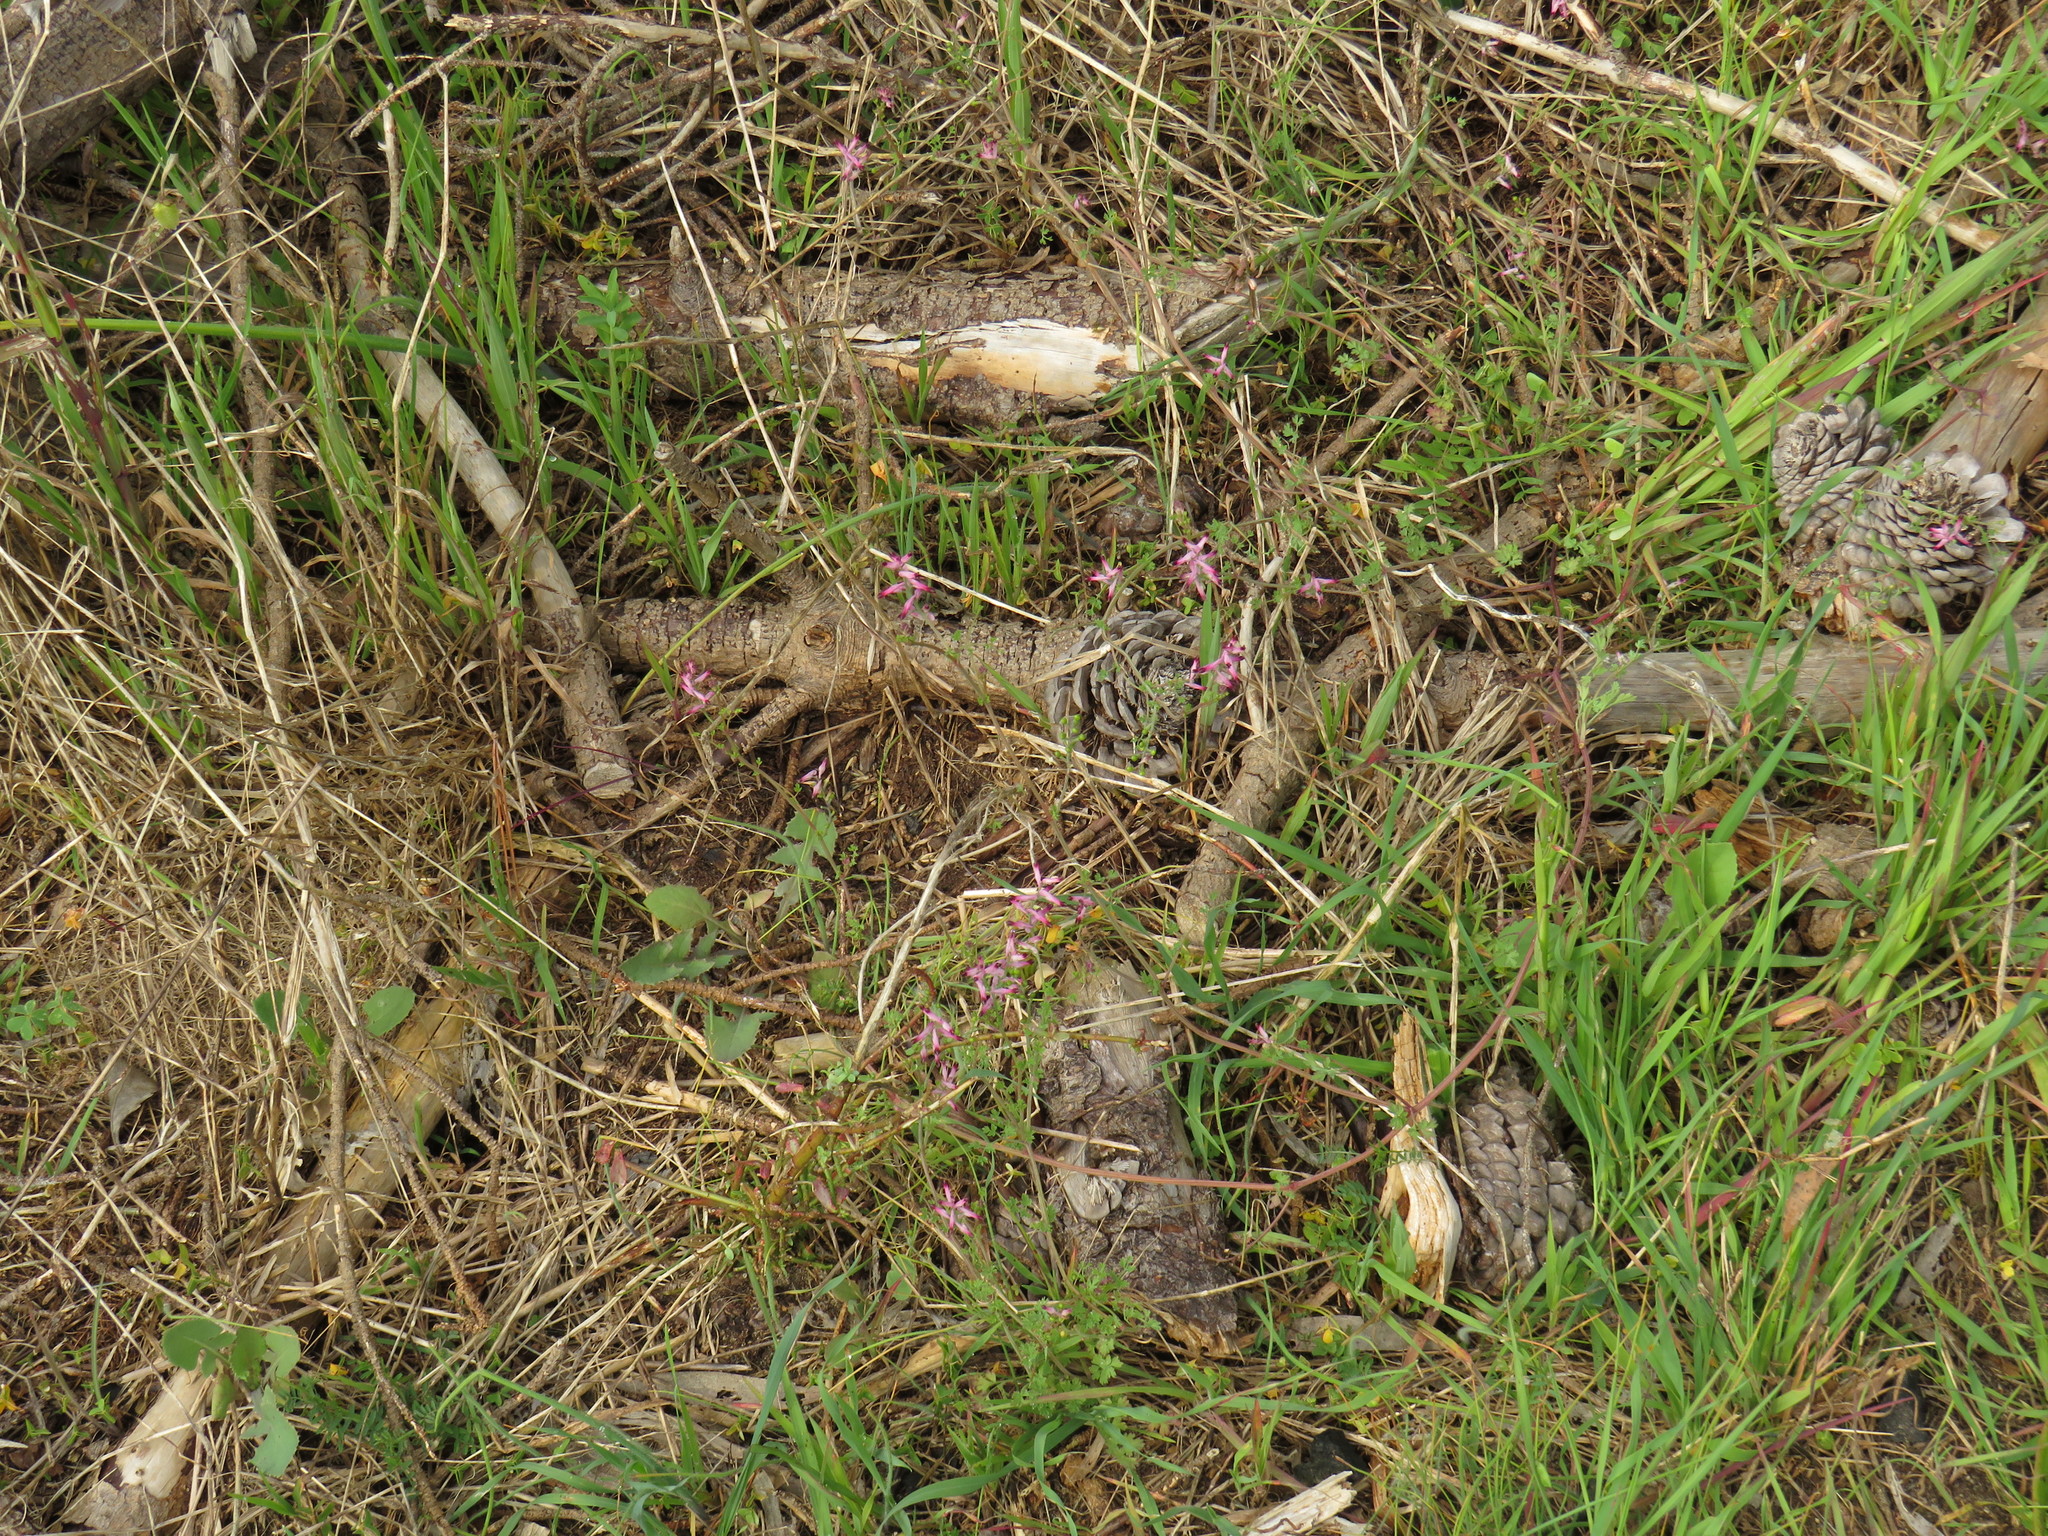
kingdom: Plantae
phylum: Tracheophyta
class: Magnoliopsida
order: Ranunculales
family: Papaveraceae
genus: Fumaria
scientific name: Fumaria muralis
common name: Common ramping-fumitory
